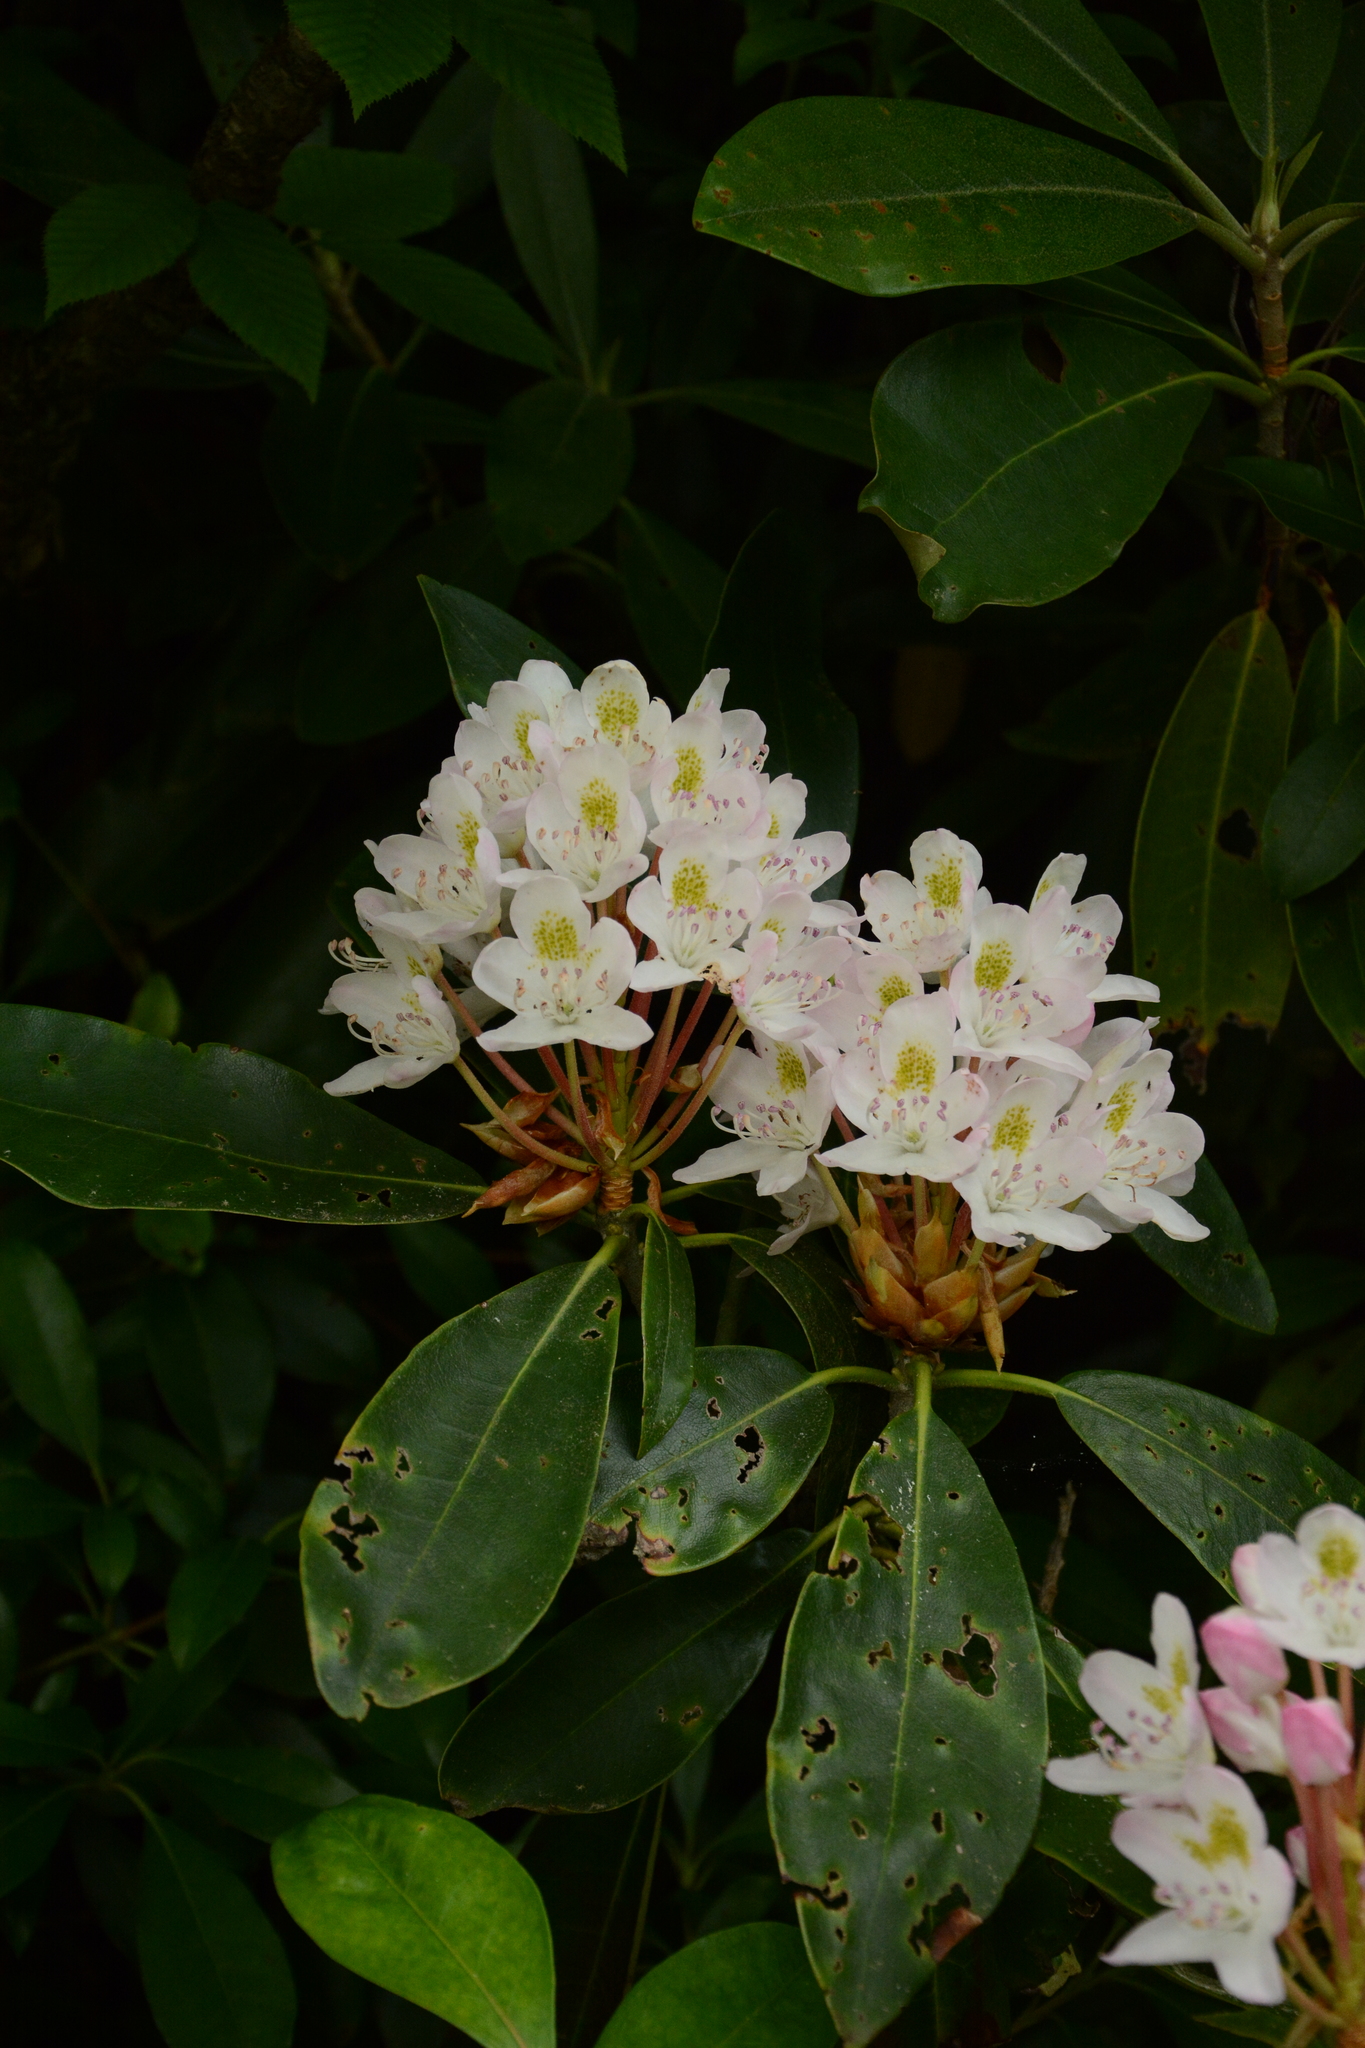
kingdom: Plantae
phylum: Tracheophyta
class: Magnoliopsida
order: Ericales
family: Ericaceae
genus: Rhododendron
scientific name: Rhododendron maximum
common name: Great rhododendron
